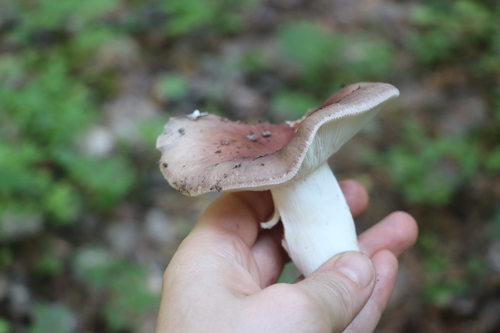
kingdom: Fungi
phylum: Basidiomycota
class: Agaricomycetes
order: Russulales
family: Russulaceae
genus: Russula
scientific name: Russula vesca
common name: Bare-toothed russula
